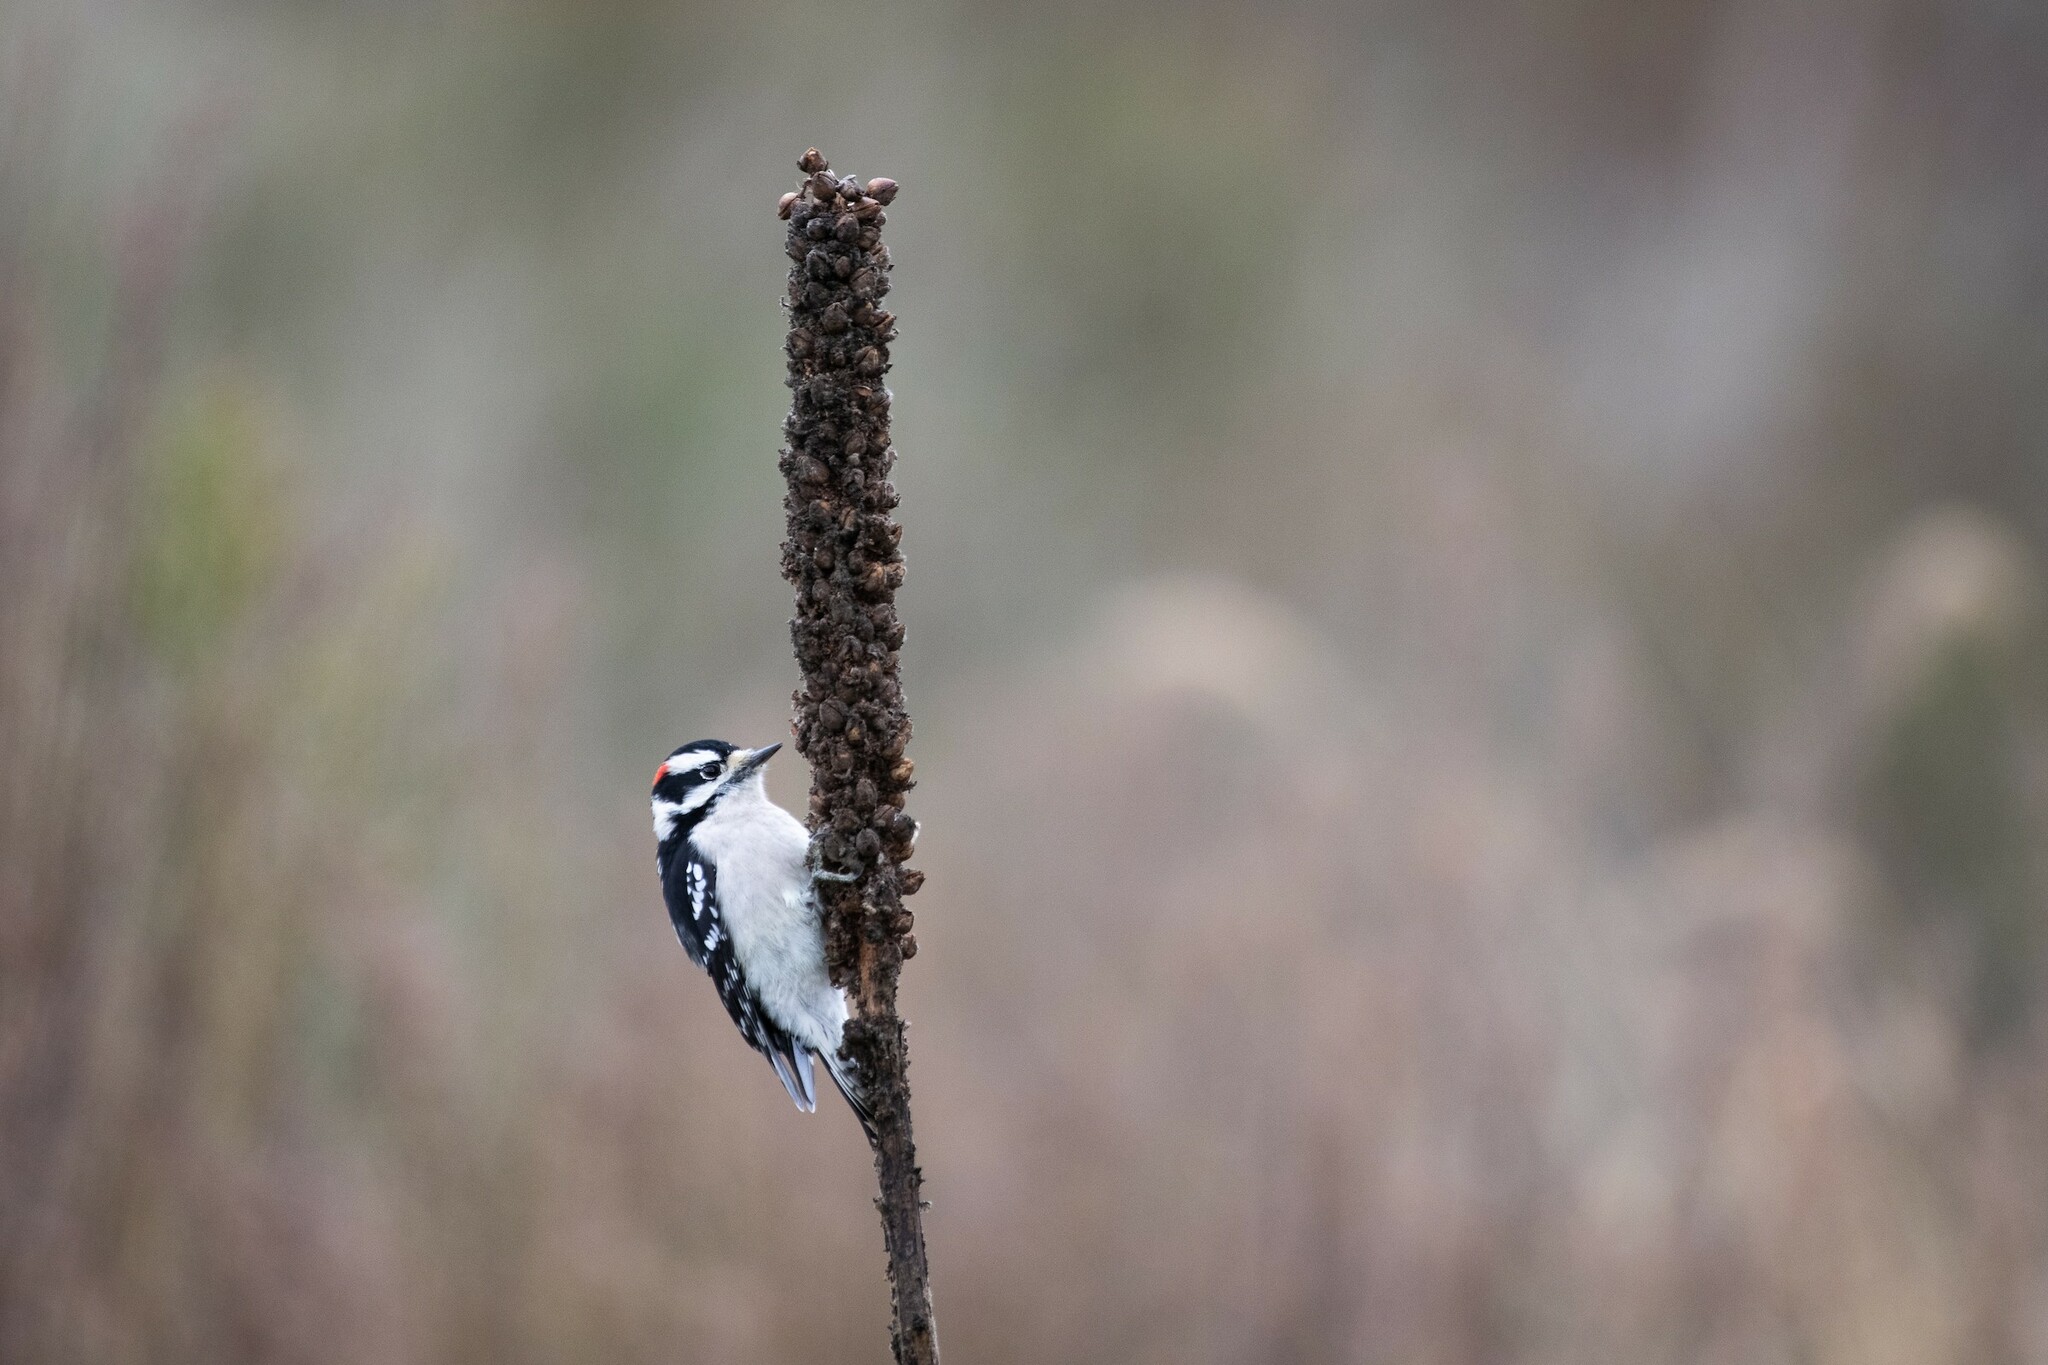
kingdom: Animalia
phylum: Chordata
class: Aves
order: Piciformes
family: Picidae
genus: Dryobates
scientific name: Dryobates pubescens
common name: Downy woodpecker
